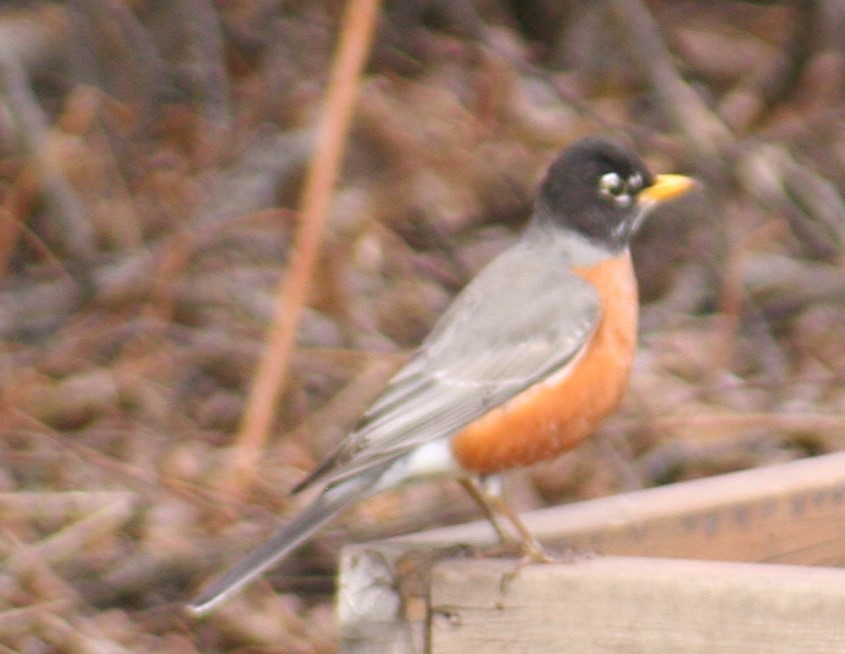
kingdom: Animalia
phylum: Chordata
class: Aves
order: Passeriformes
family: Turdidae
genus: Turdus
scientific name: Turdus migratorius
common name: American robin
